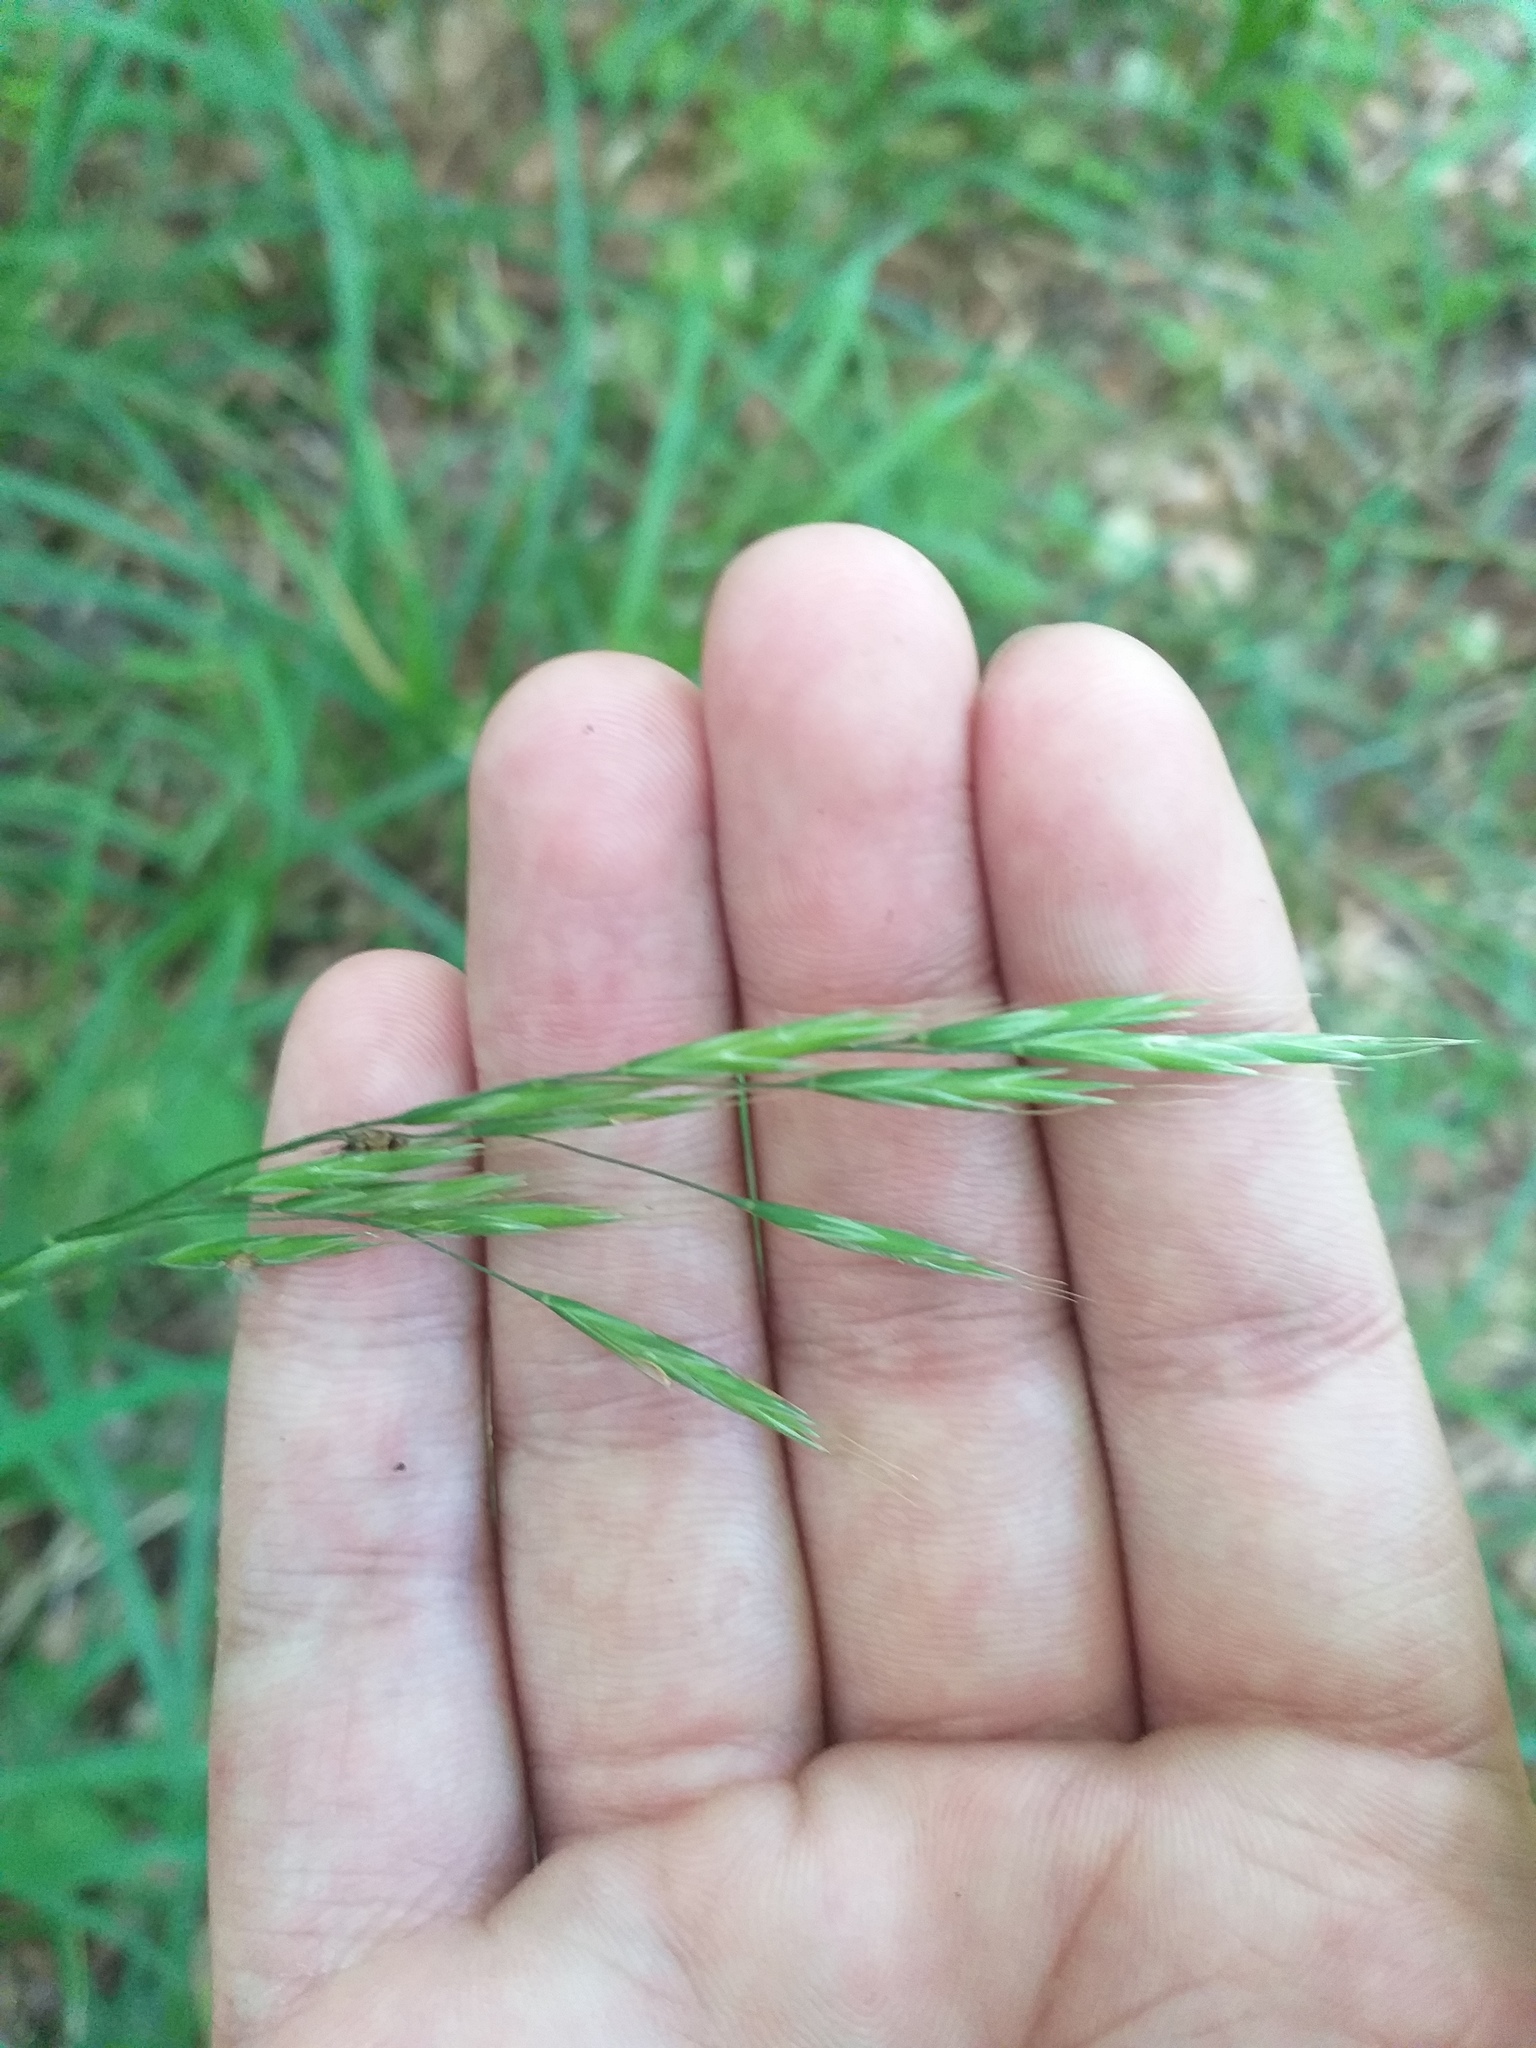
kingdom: Plantae
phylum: Tracheophyta
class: Liliopsida
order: Poales
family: Poaceae
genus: Bromus
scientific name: Bromus benekenii
